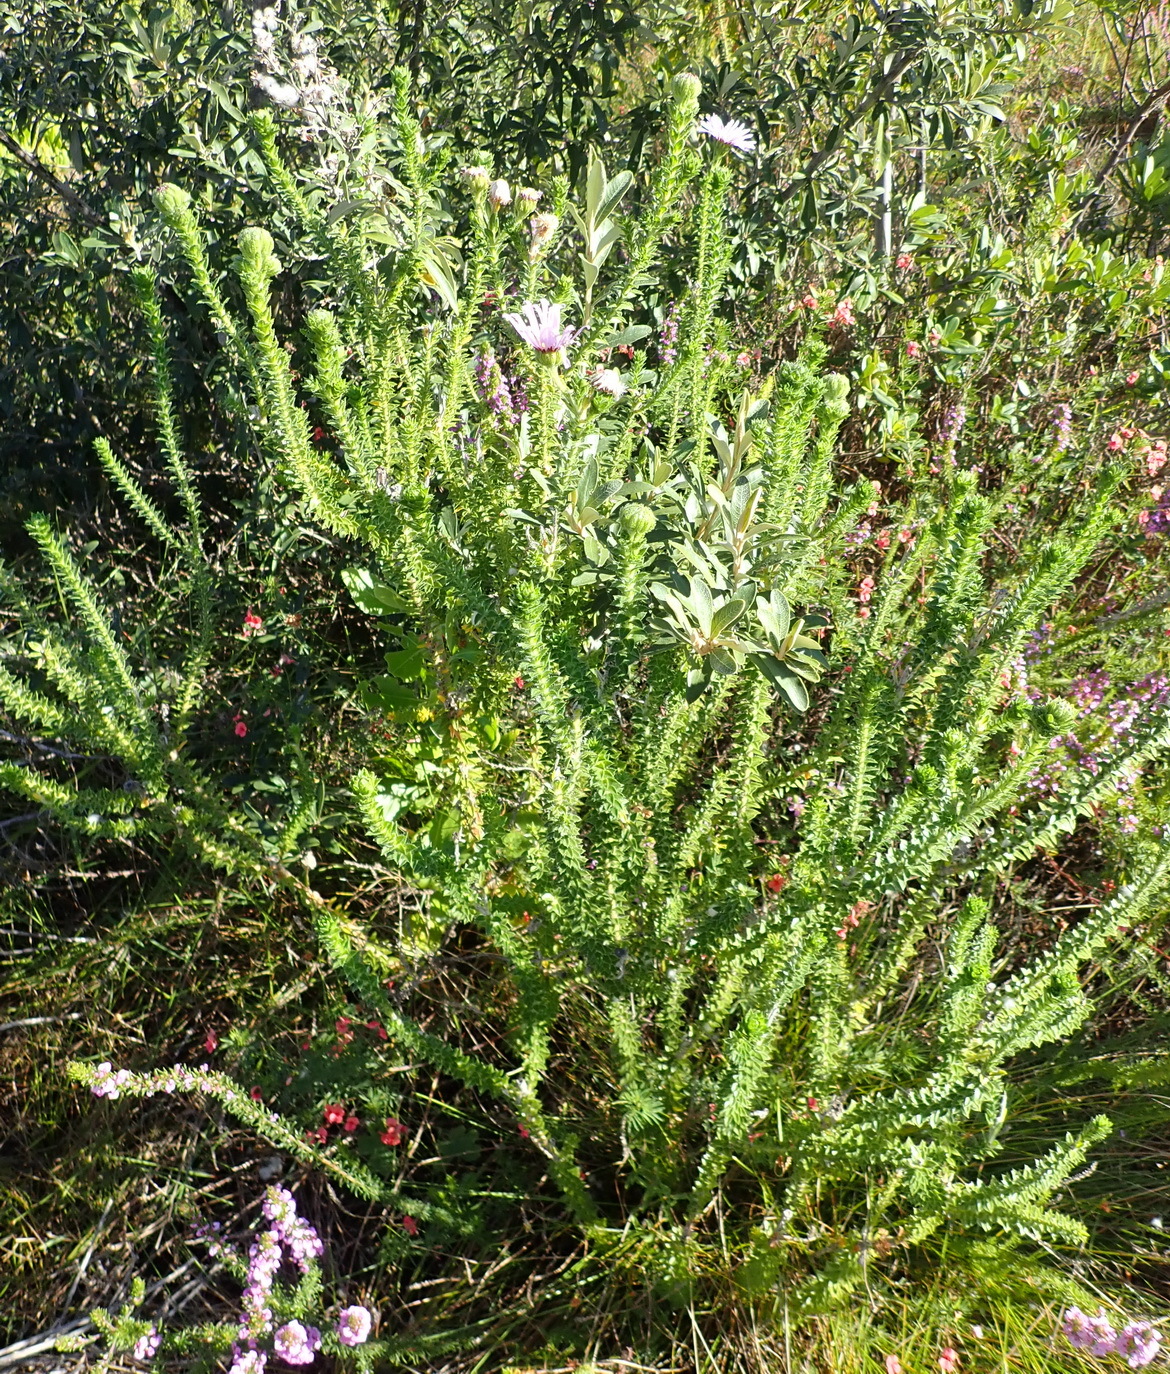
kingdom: Plantae
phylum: Tracheophyta
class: Magnoliopsida
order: Asterales
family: Asteraceae
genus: Felicia
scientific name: Felicia echinata
